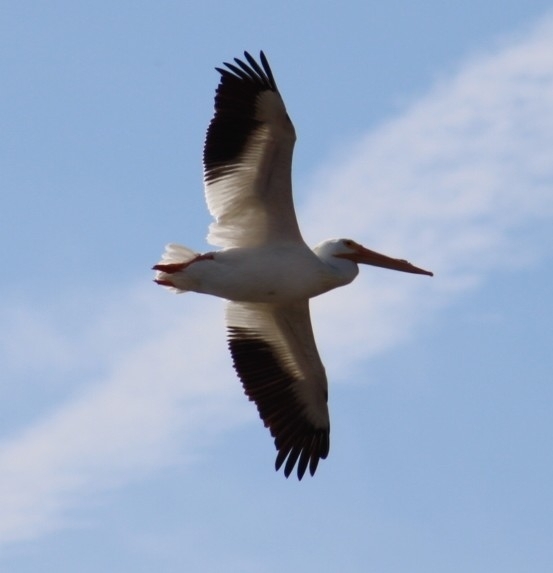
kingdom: Animalia
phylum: Chordata
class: Aves
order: Pelecaniformes
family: Pelecanidae
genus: Pelecanus
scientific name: Pelecanus erythrorhynchos
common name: American white pelican
